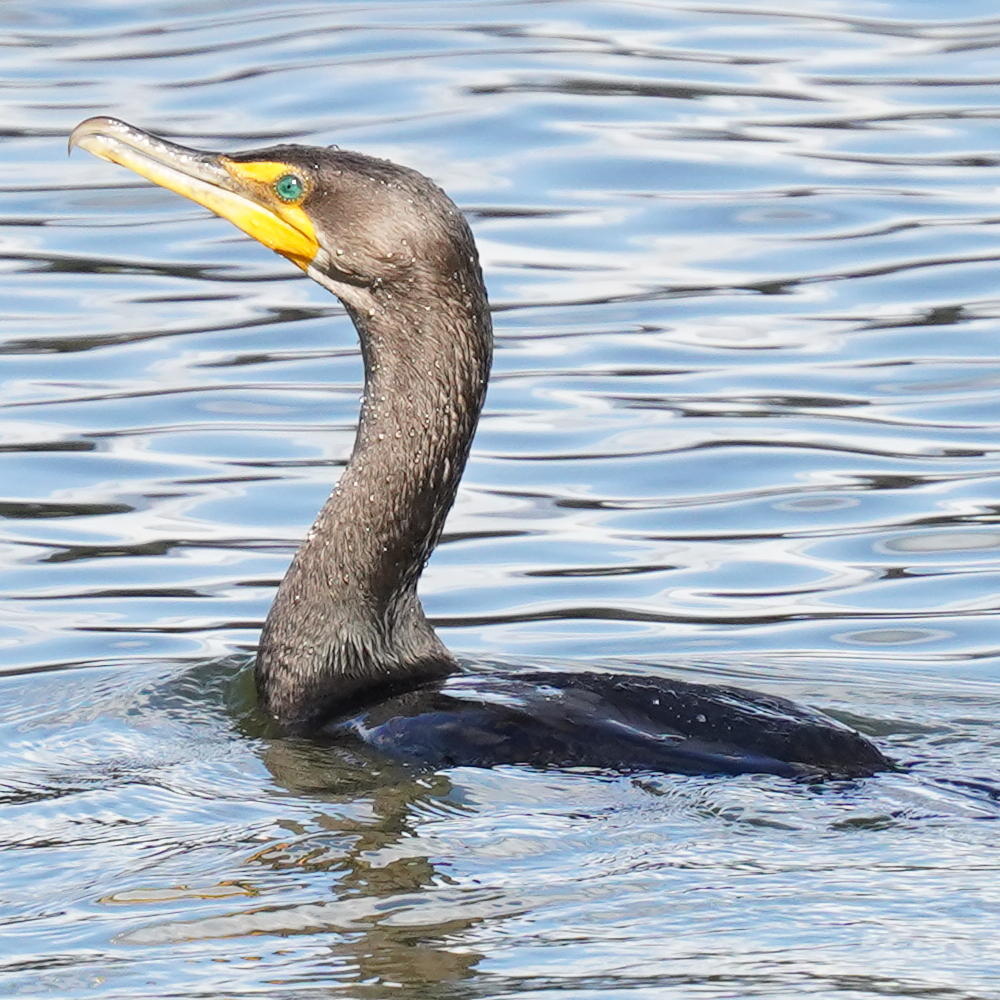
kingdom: Animalia
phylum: Chordata
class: Aves
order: Suliformes
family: Phalacrocoracidae
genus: Phalacrocorax
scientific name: Phalacrocorax auritus
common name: Double-crested cormorant
